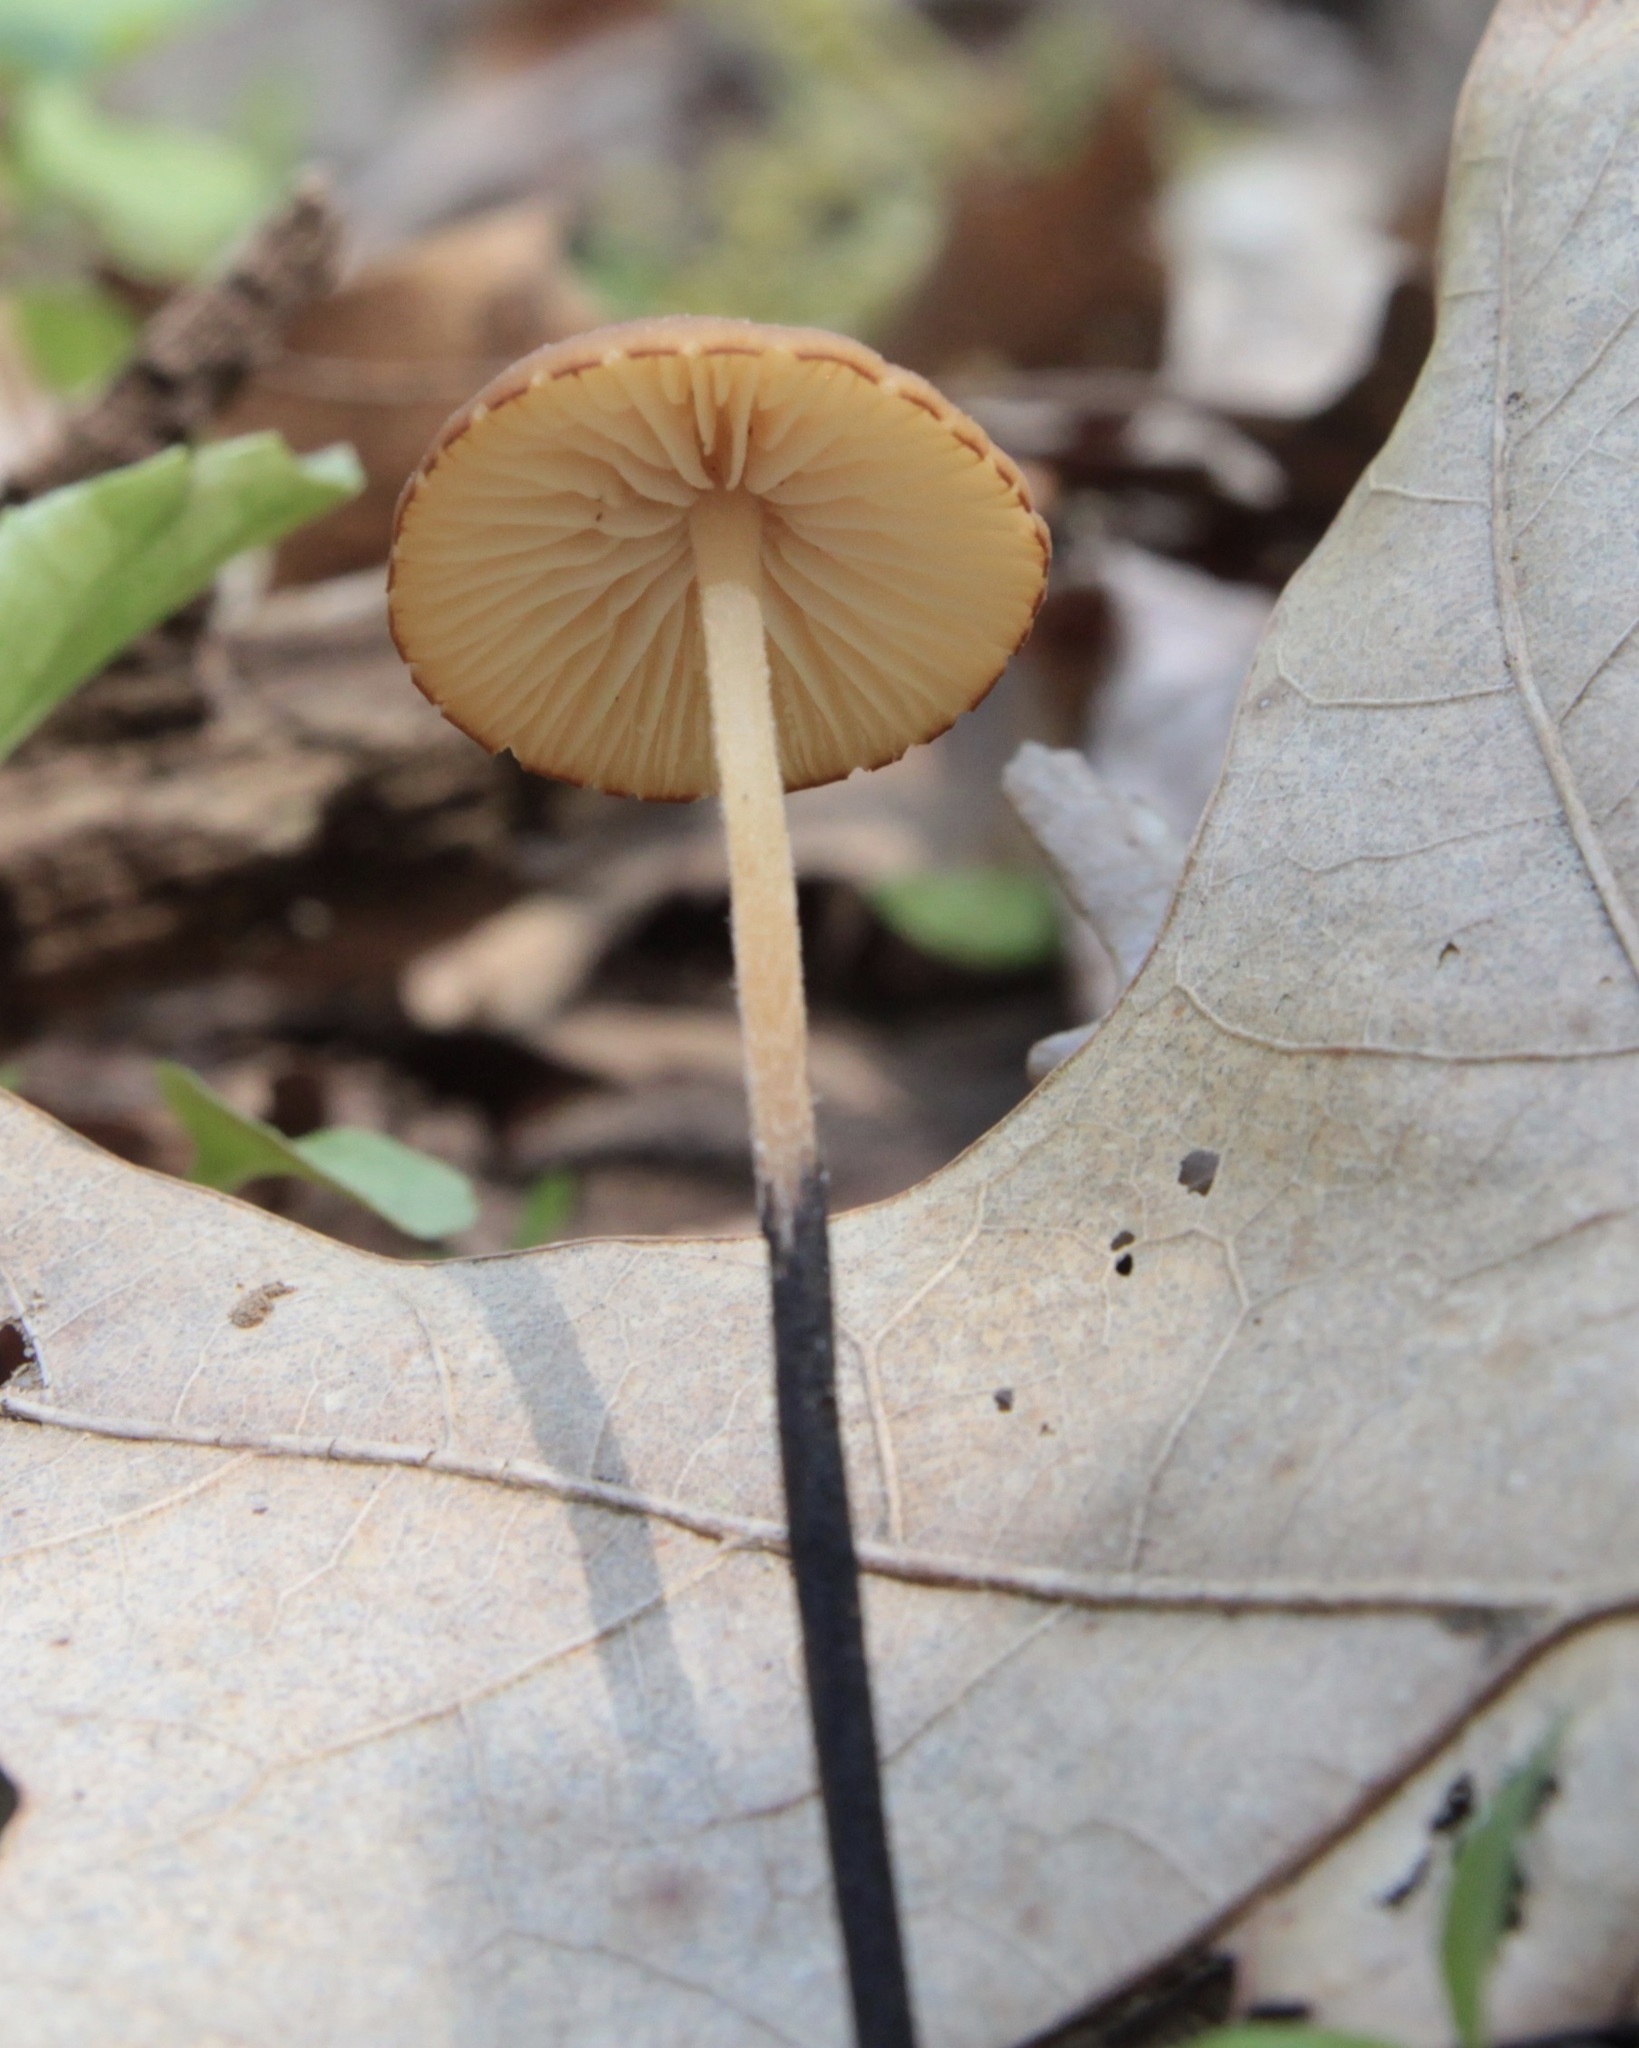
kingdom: Fungi
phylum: Basidiomycota
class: Agaricomycetes
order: Agaricales
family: Physalacriaceae
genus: Rhizomarasmius
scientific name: Rhizomarasmius pyrrhocephalus
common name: Hairy long stem marasmius
